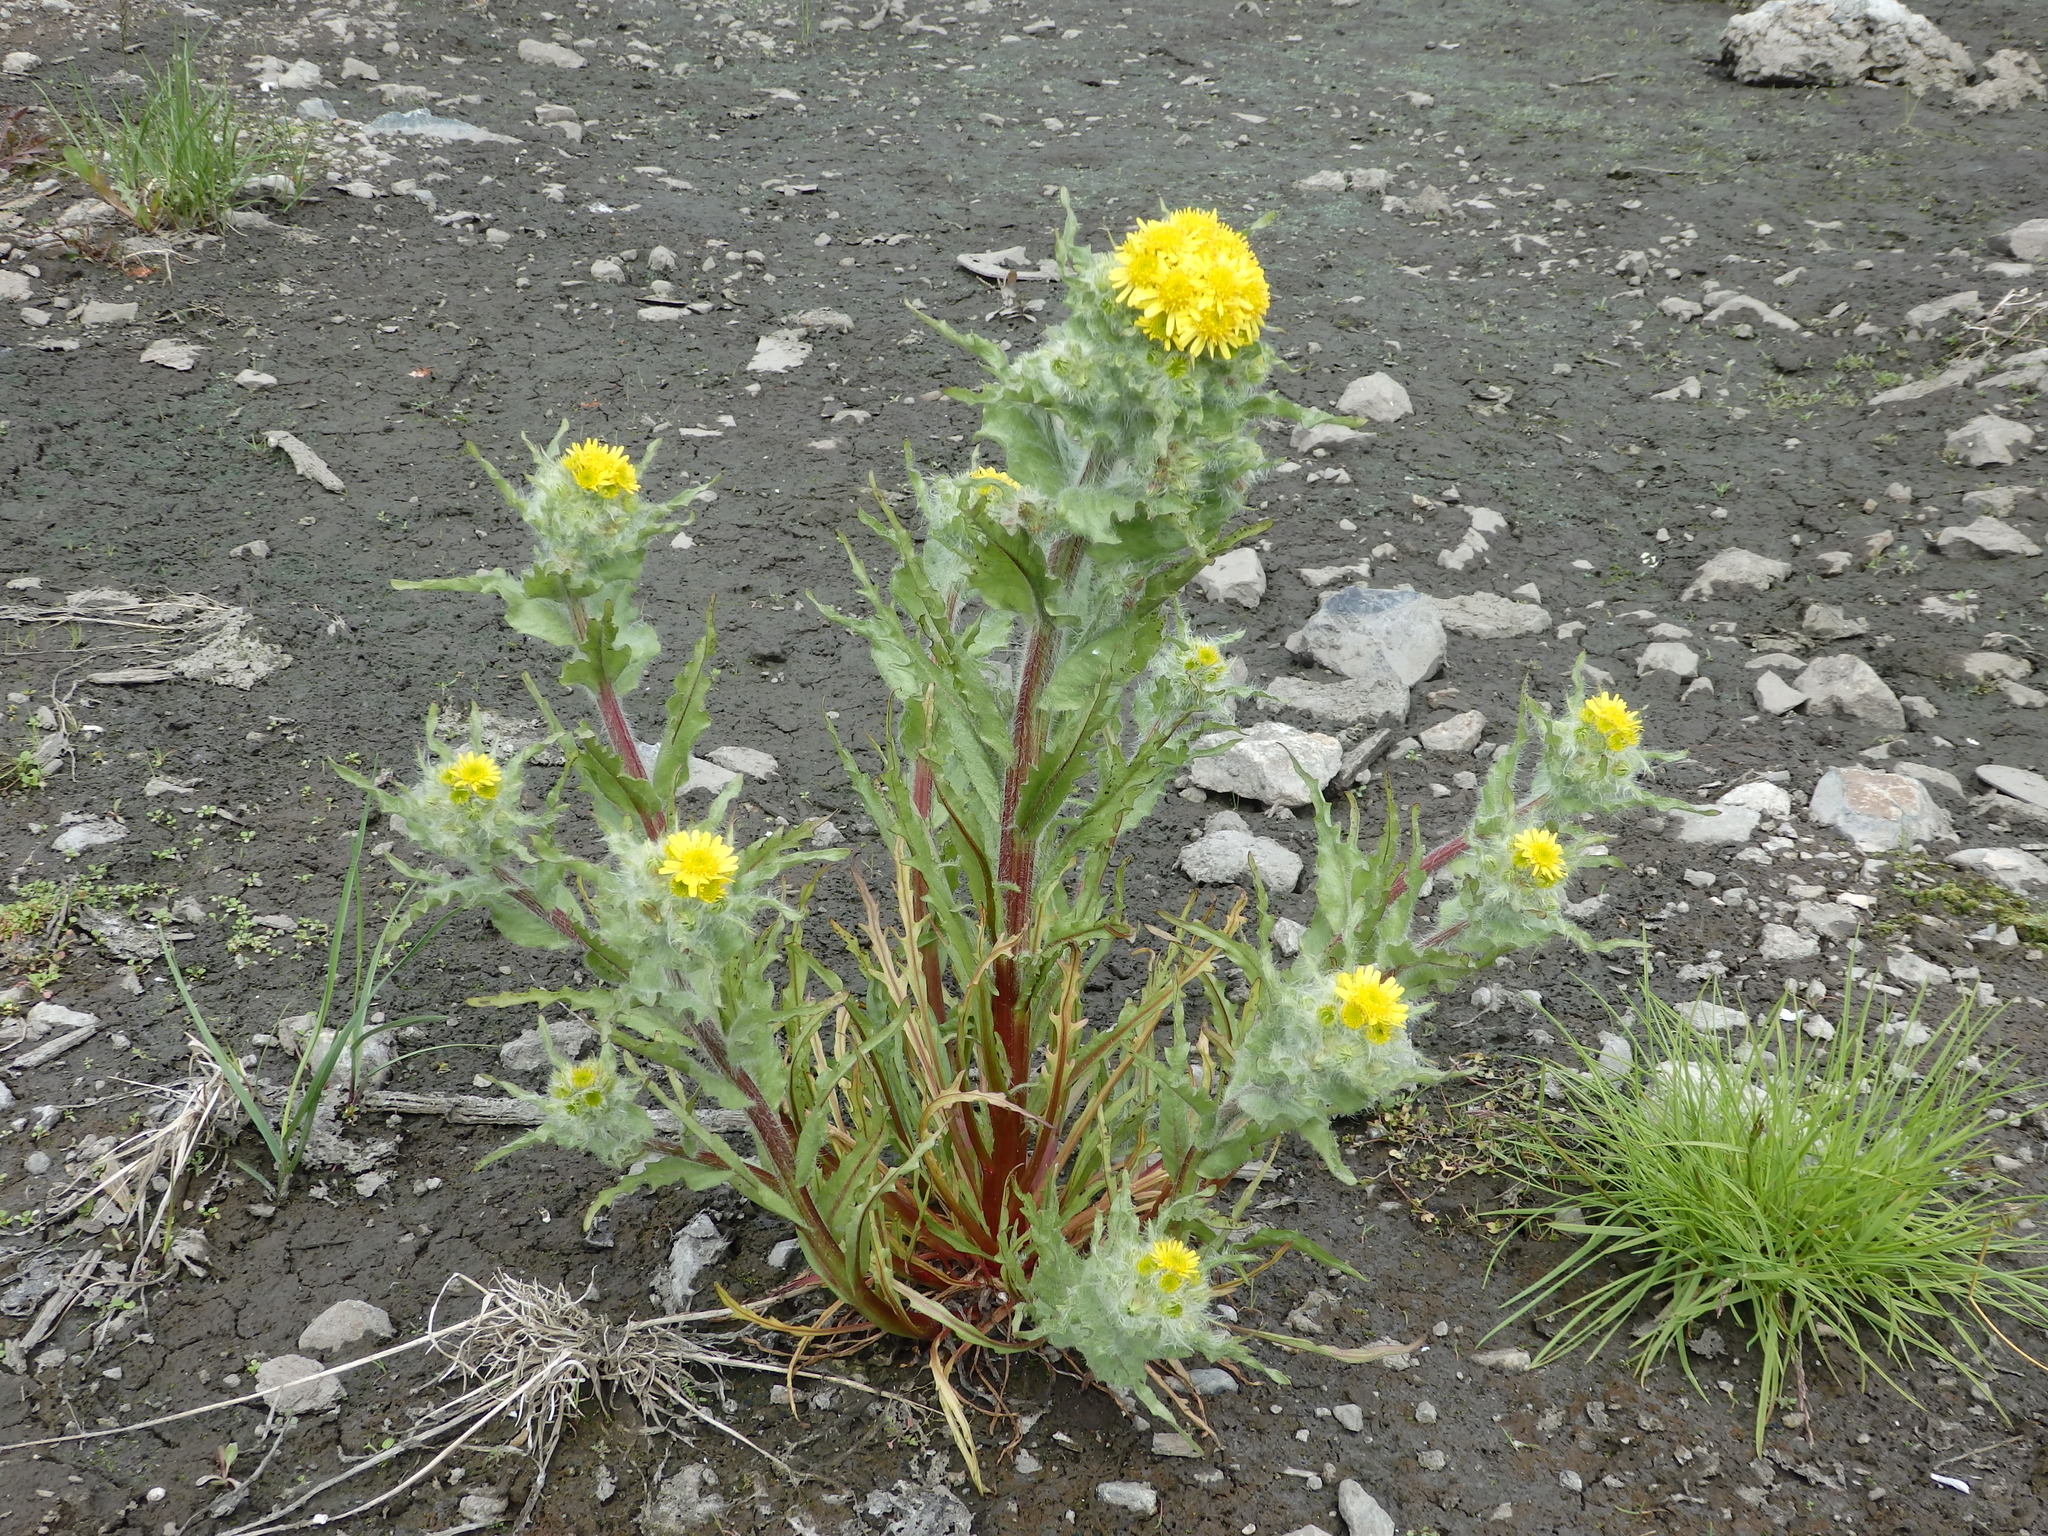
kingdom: Plantae
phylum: Tracheophyta
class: Magnoliopsida
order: Asterales
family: Asteraceae
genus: Tephroseris
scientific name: Tephroseris palustris
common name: Marsh fleawort
